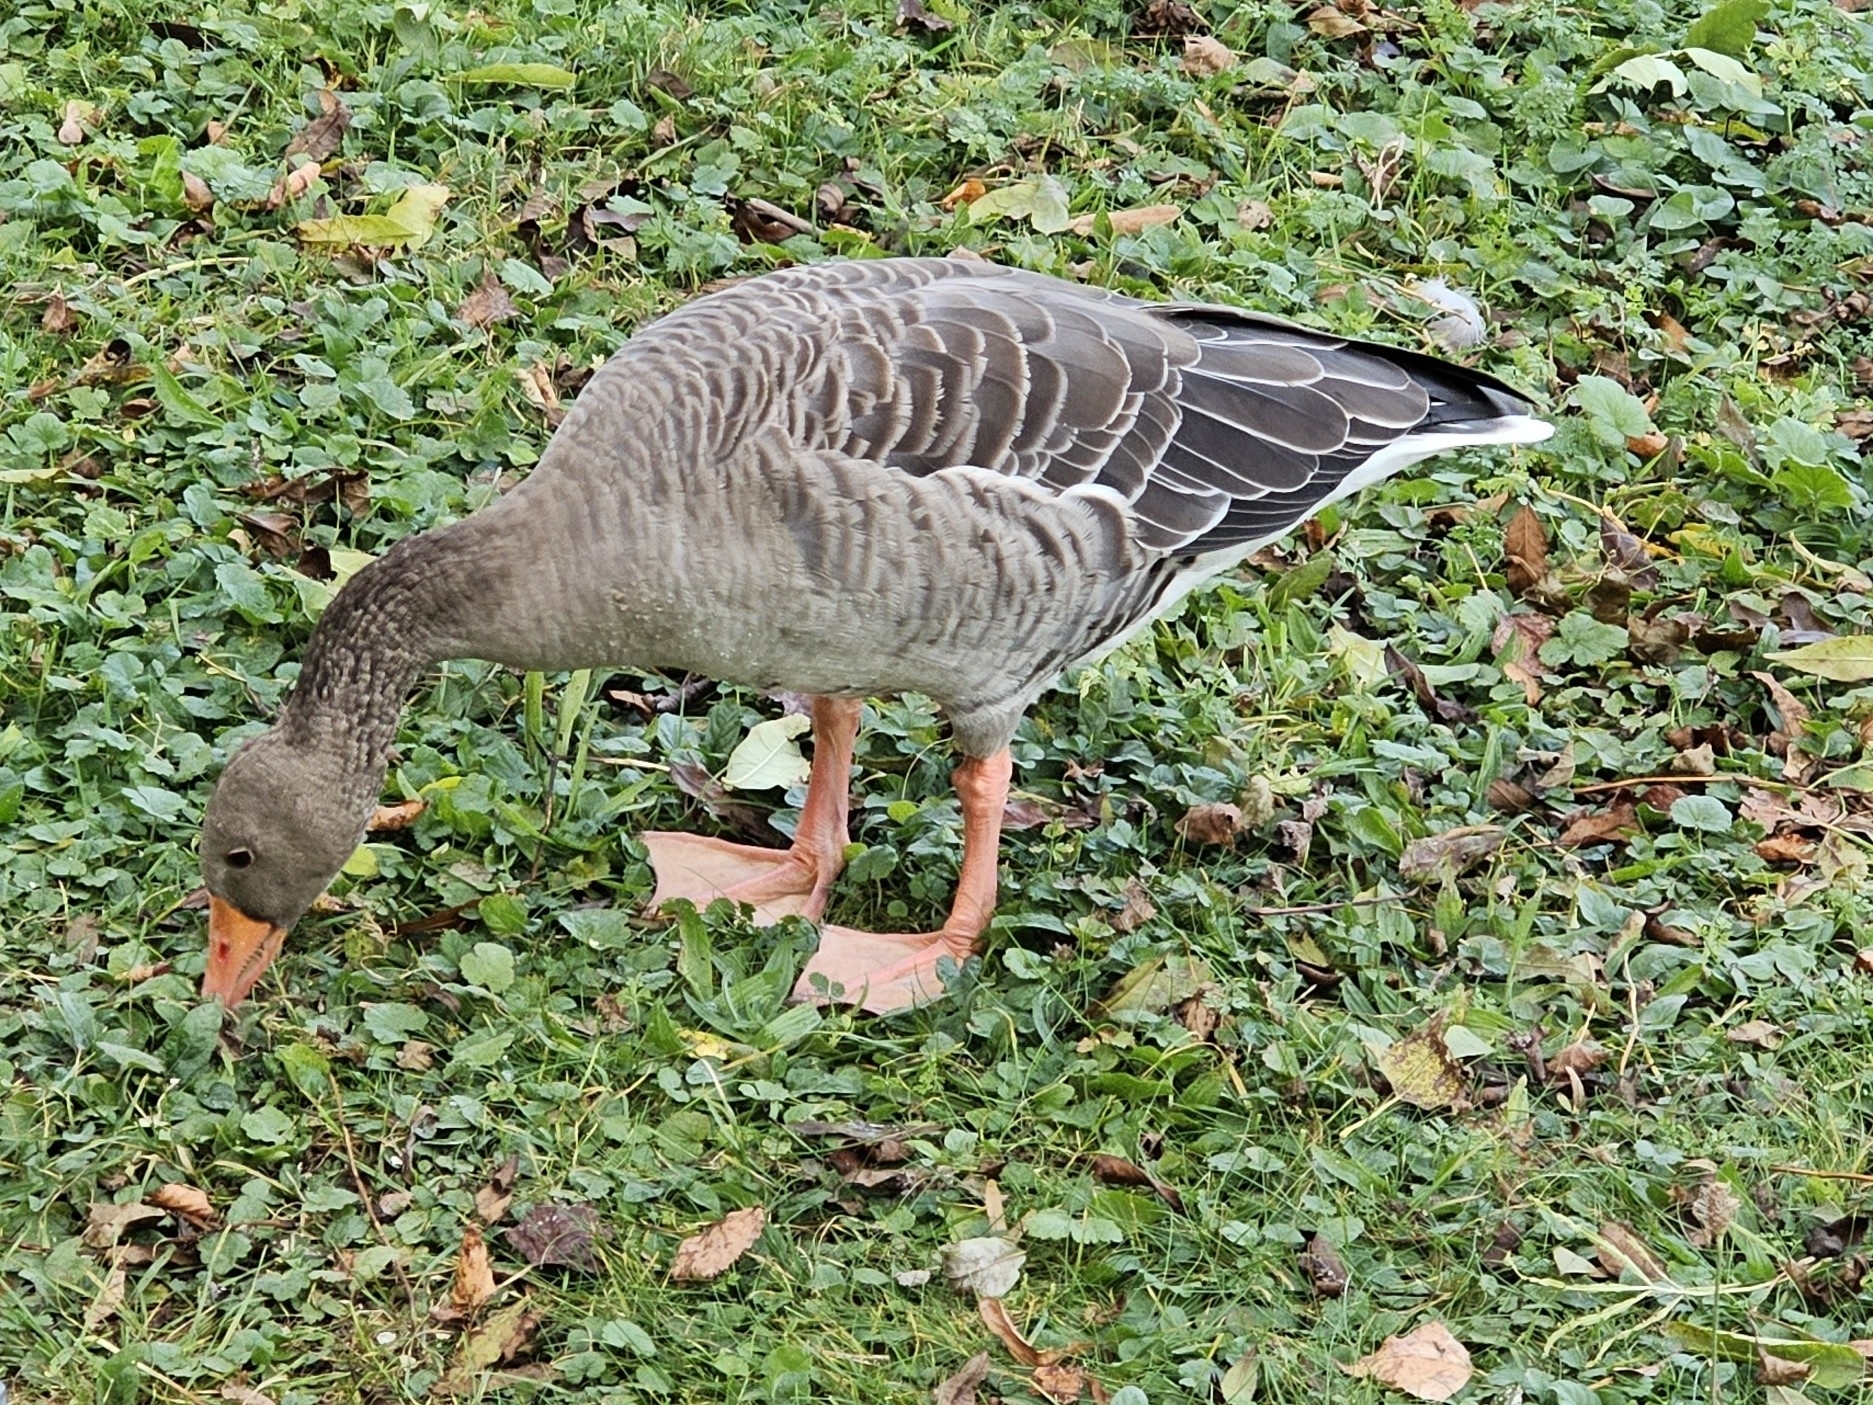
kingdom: Animalia
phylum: Chordata
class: Aves
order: Anseriformes
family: Anatidae
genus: Anser
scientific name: Anser anser
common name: Greylag goose
